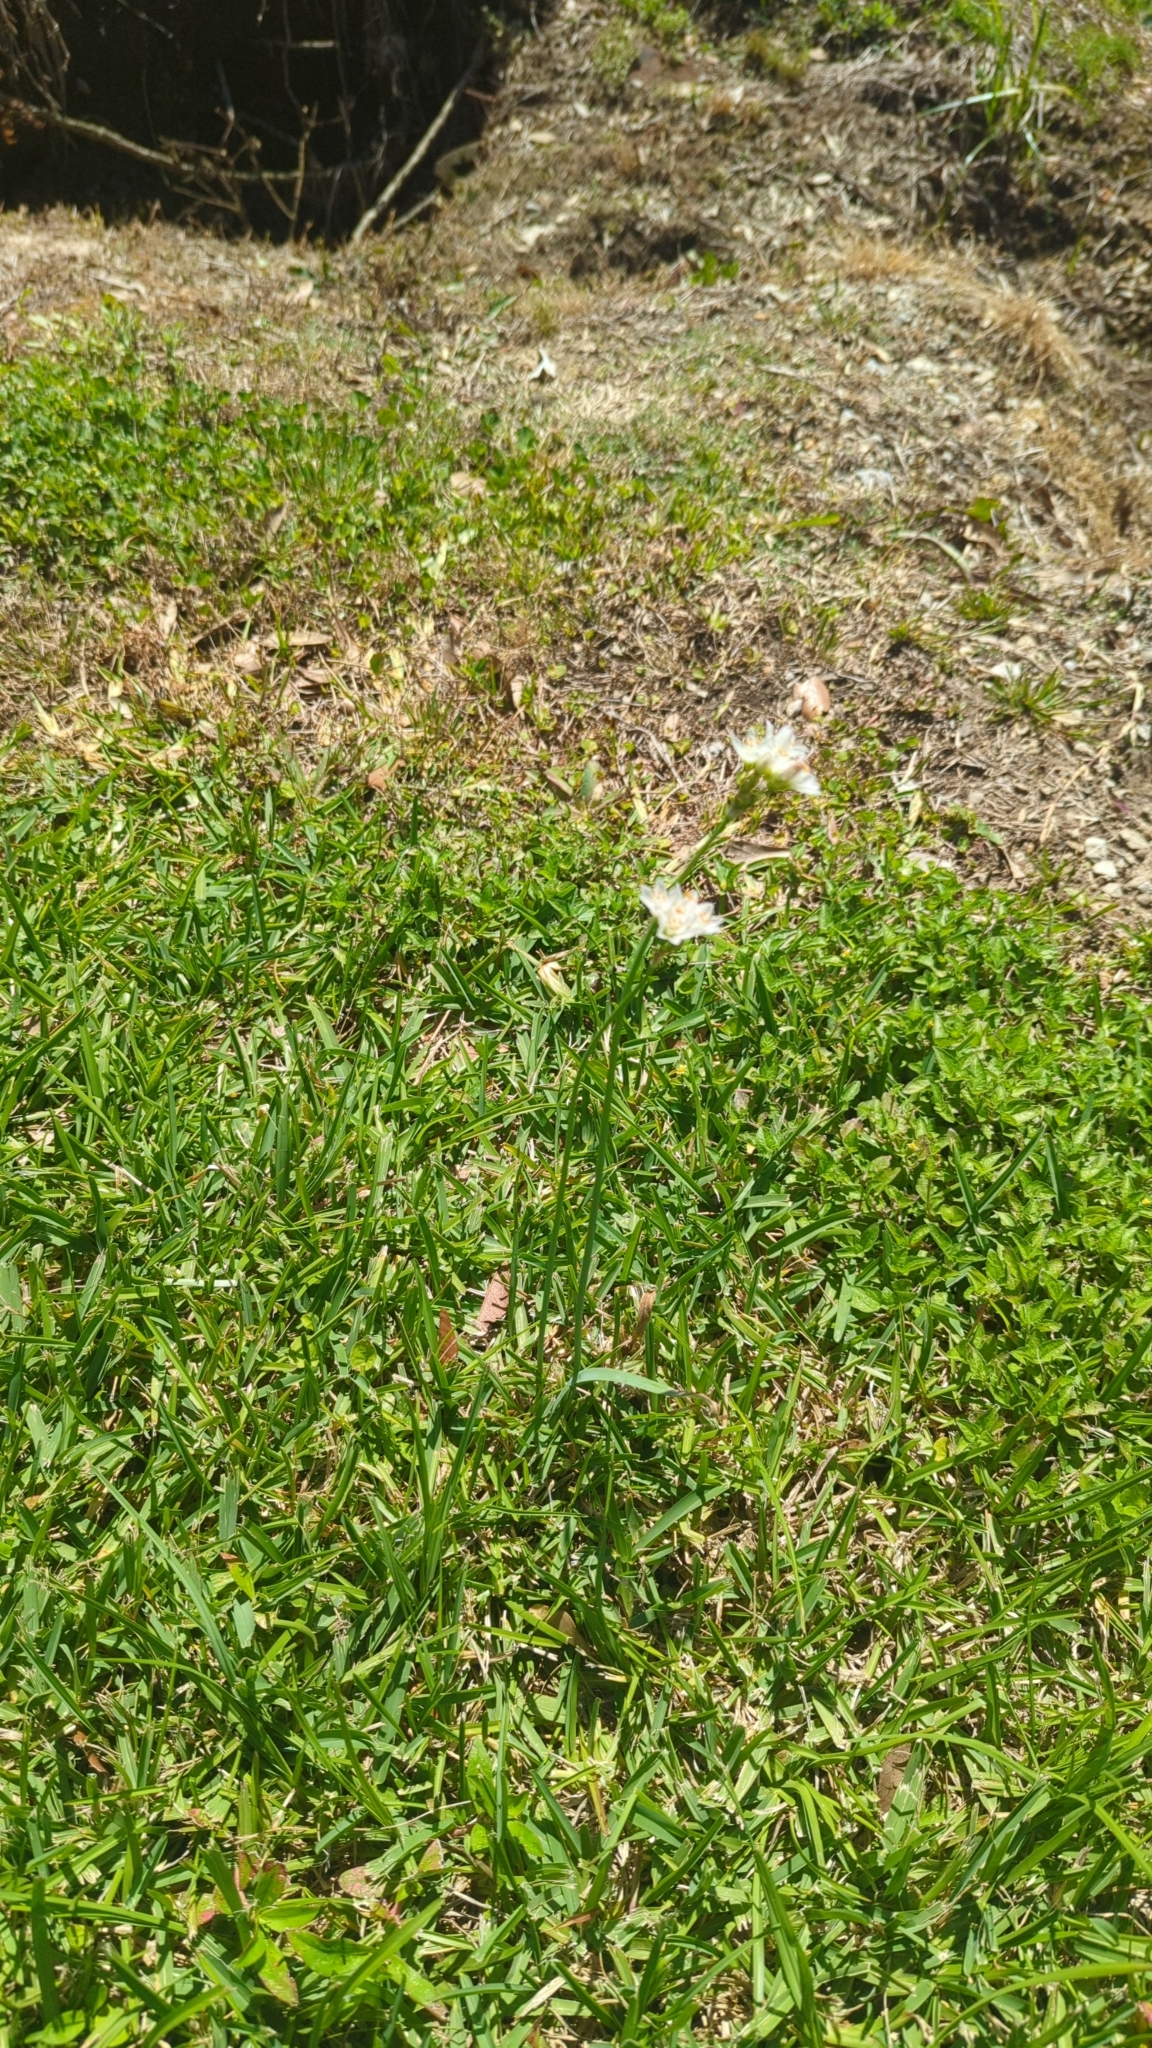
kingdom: Plantae
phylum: Tracheophyta
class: Liliopsida
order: Asparagales
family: Amaryllidaceae
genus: Nothoscordum
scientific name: Nothoscordum gracile
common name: Slender false garlic
